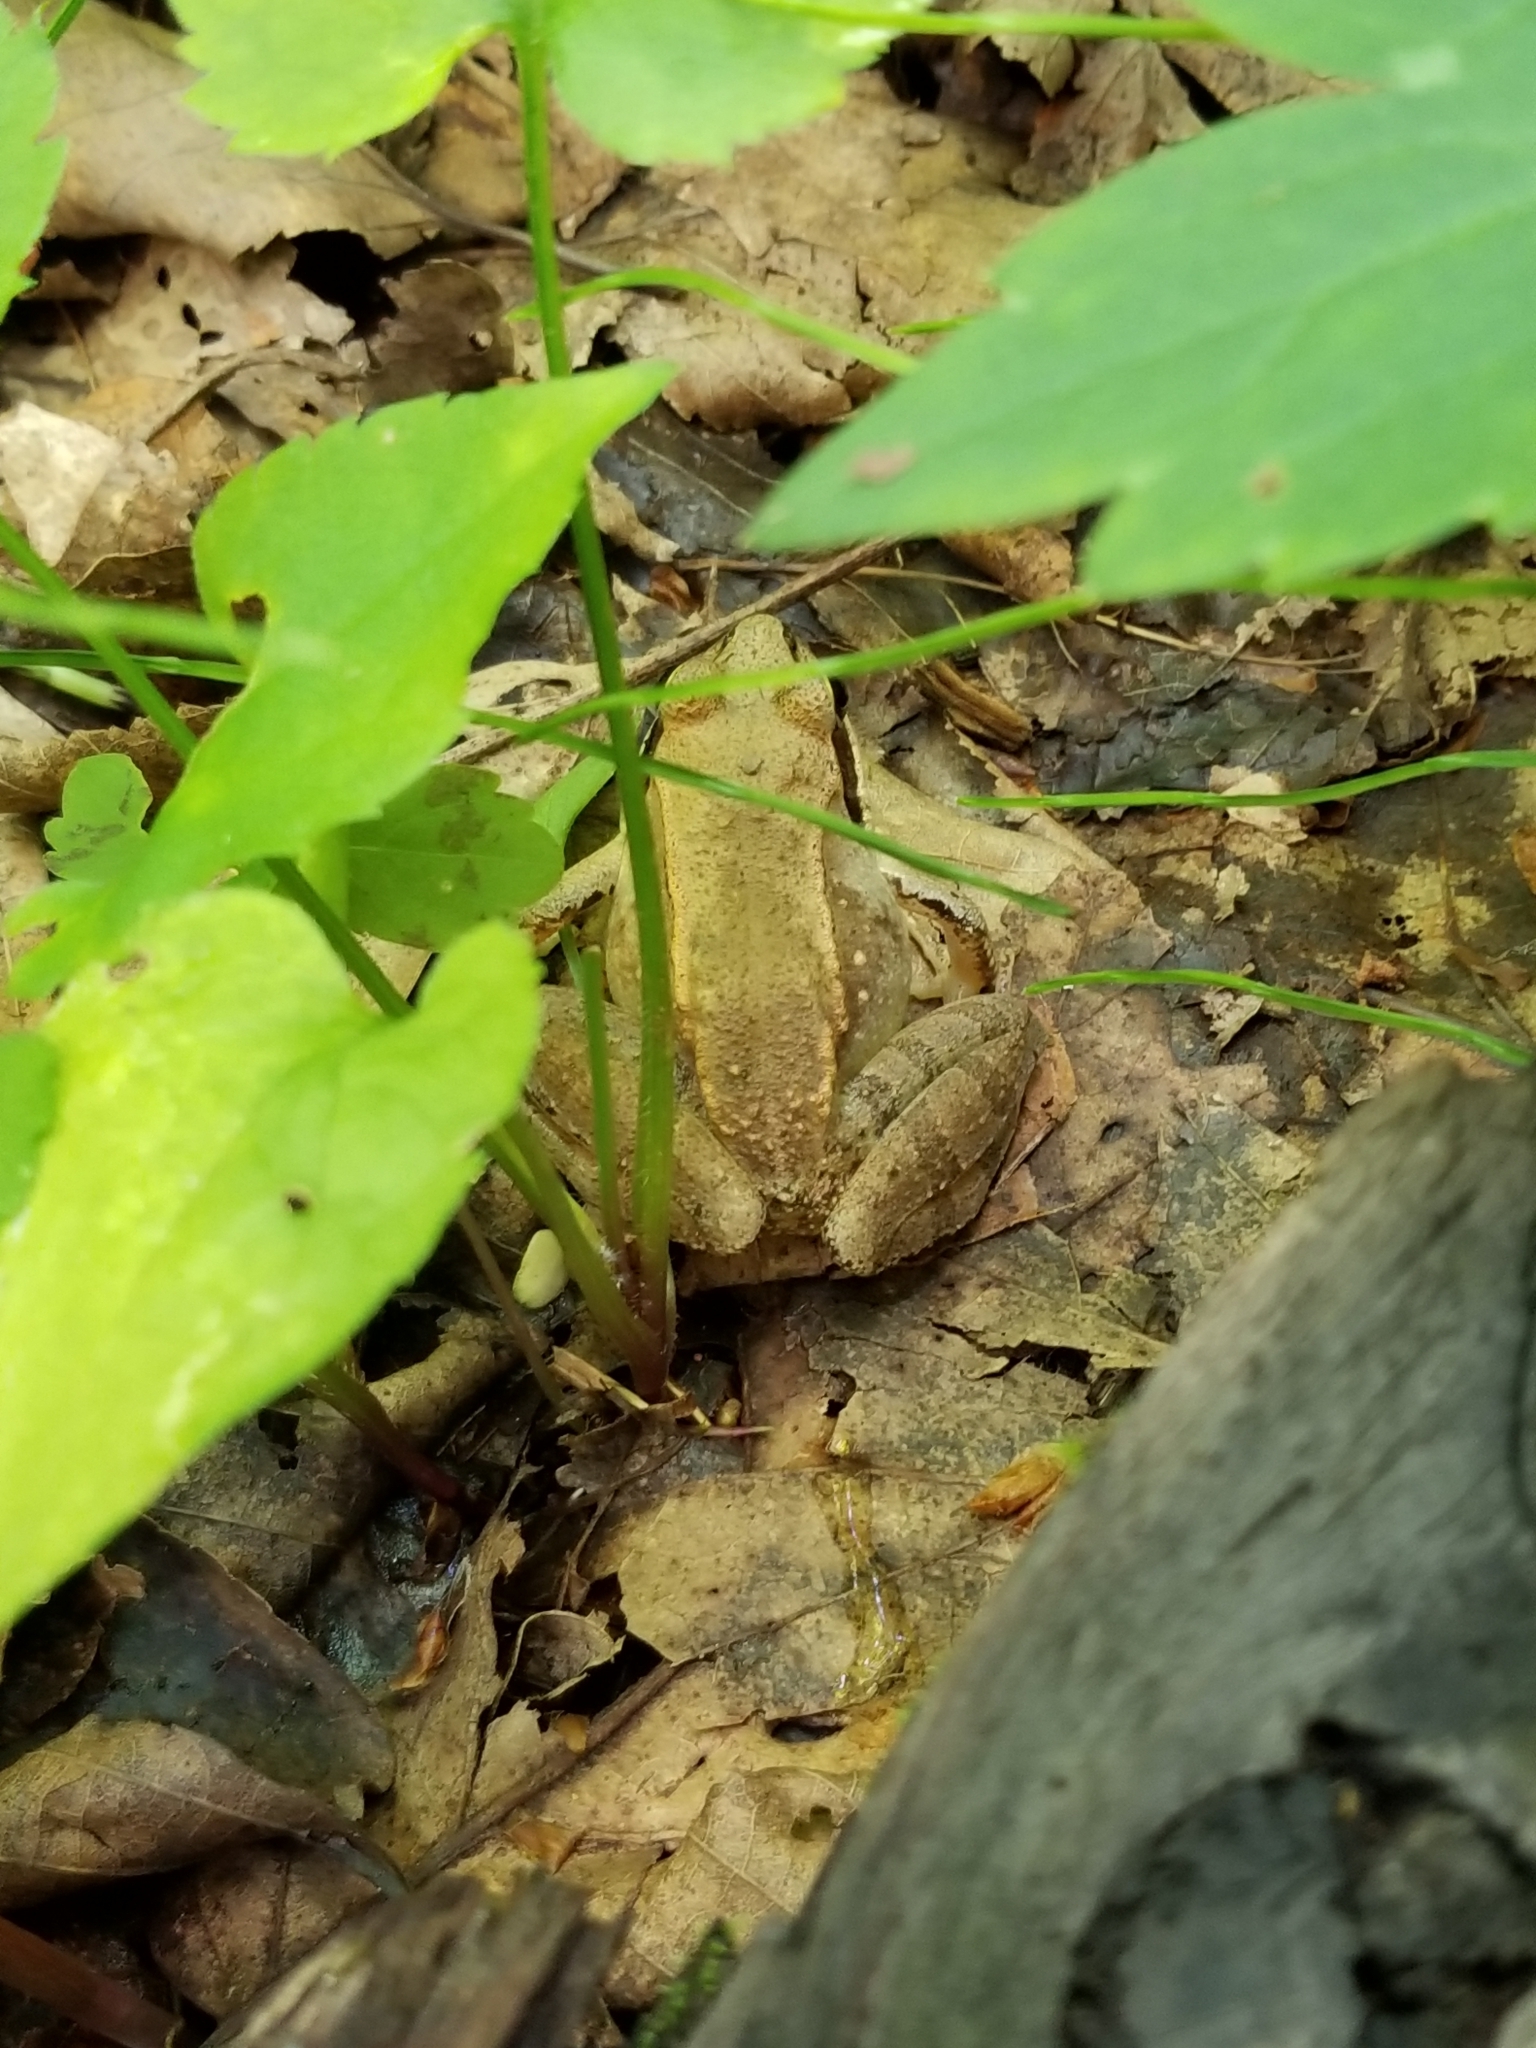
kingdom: Animalia
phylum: Chordata
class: Amphibia
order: Anura
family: Ranidae
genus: Lithobates
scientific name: Lithobates sylvaticus
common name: Wood frog
